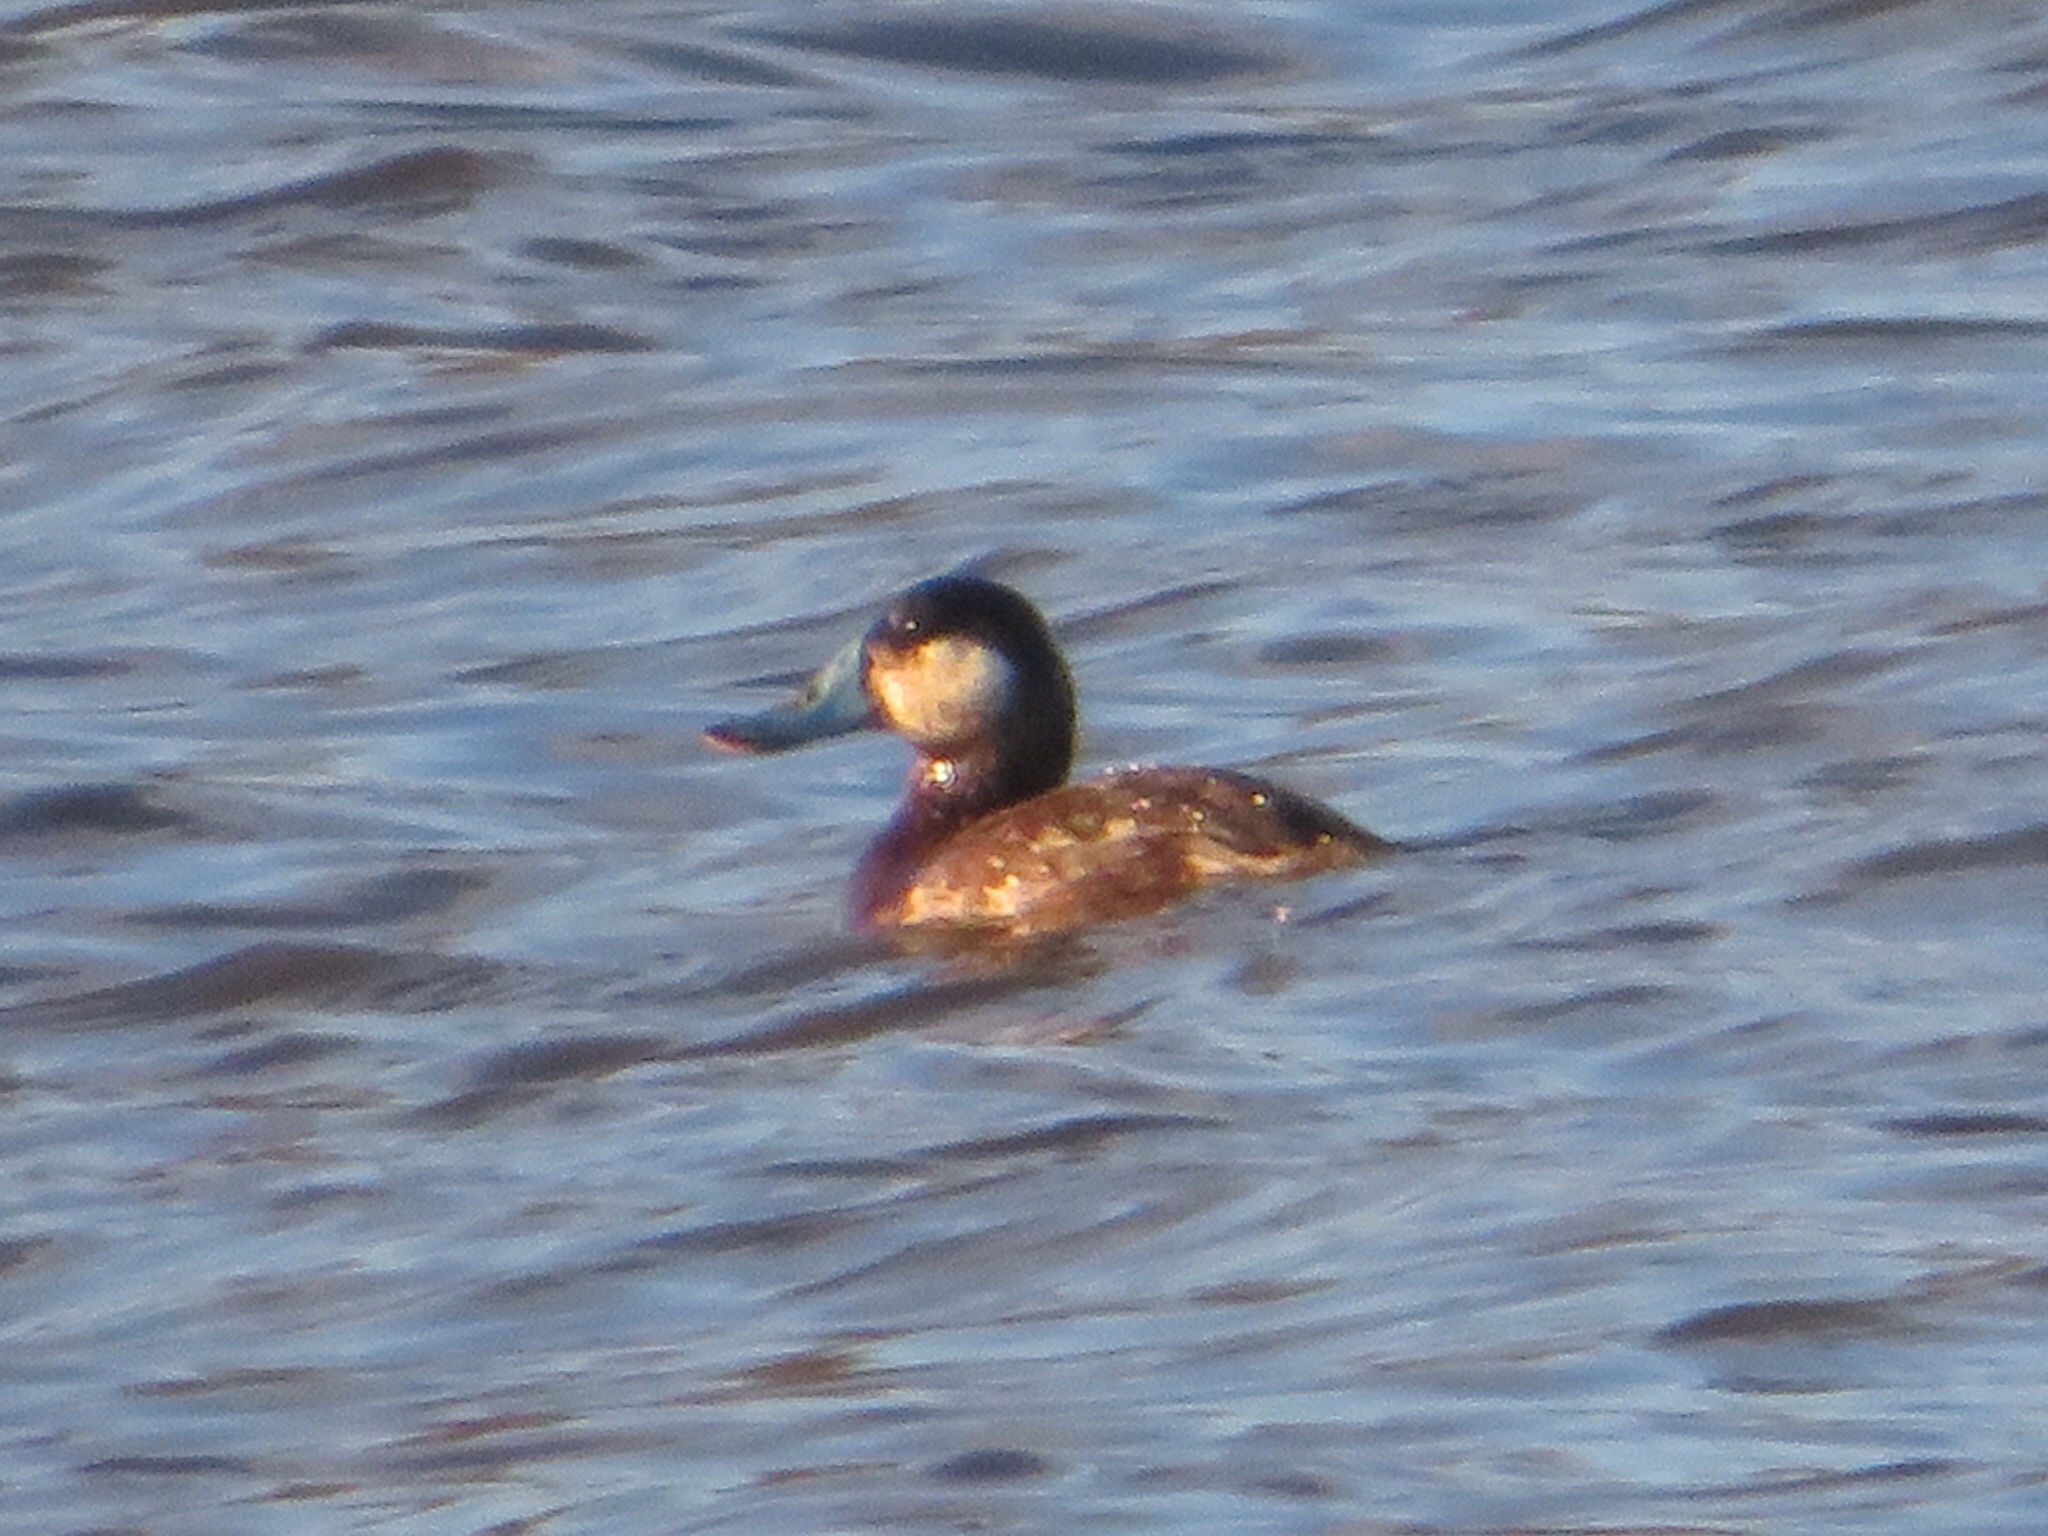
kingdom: Animalia
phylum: Chordata
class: Aves
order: Anseriformes
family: Anatidae
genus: Oxyura
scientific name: Oxyura jamaicensis
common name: Ruddy duck
